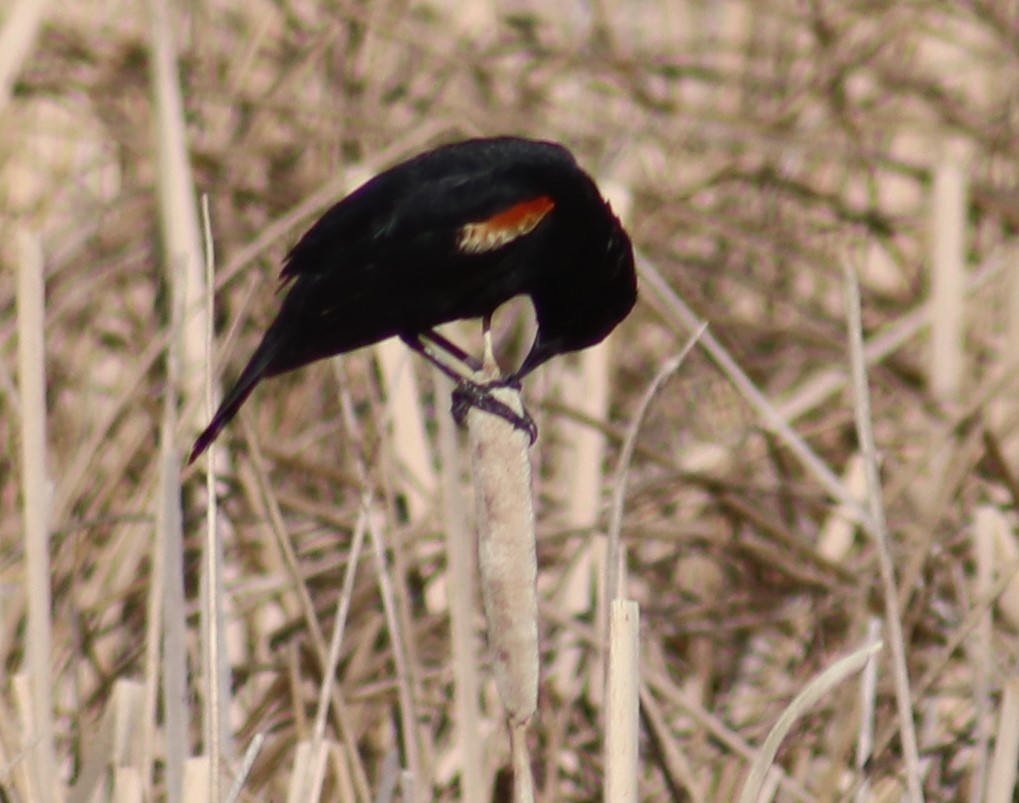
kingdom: Animalia
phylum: Chordata
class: Aves
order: Passeriformes
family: Icteridae
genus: Agelaius
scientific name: Agelaius phoeniceus
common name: Red-winged blackbird
